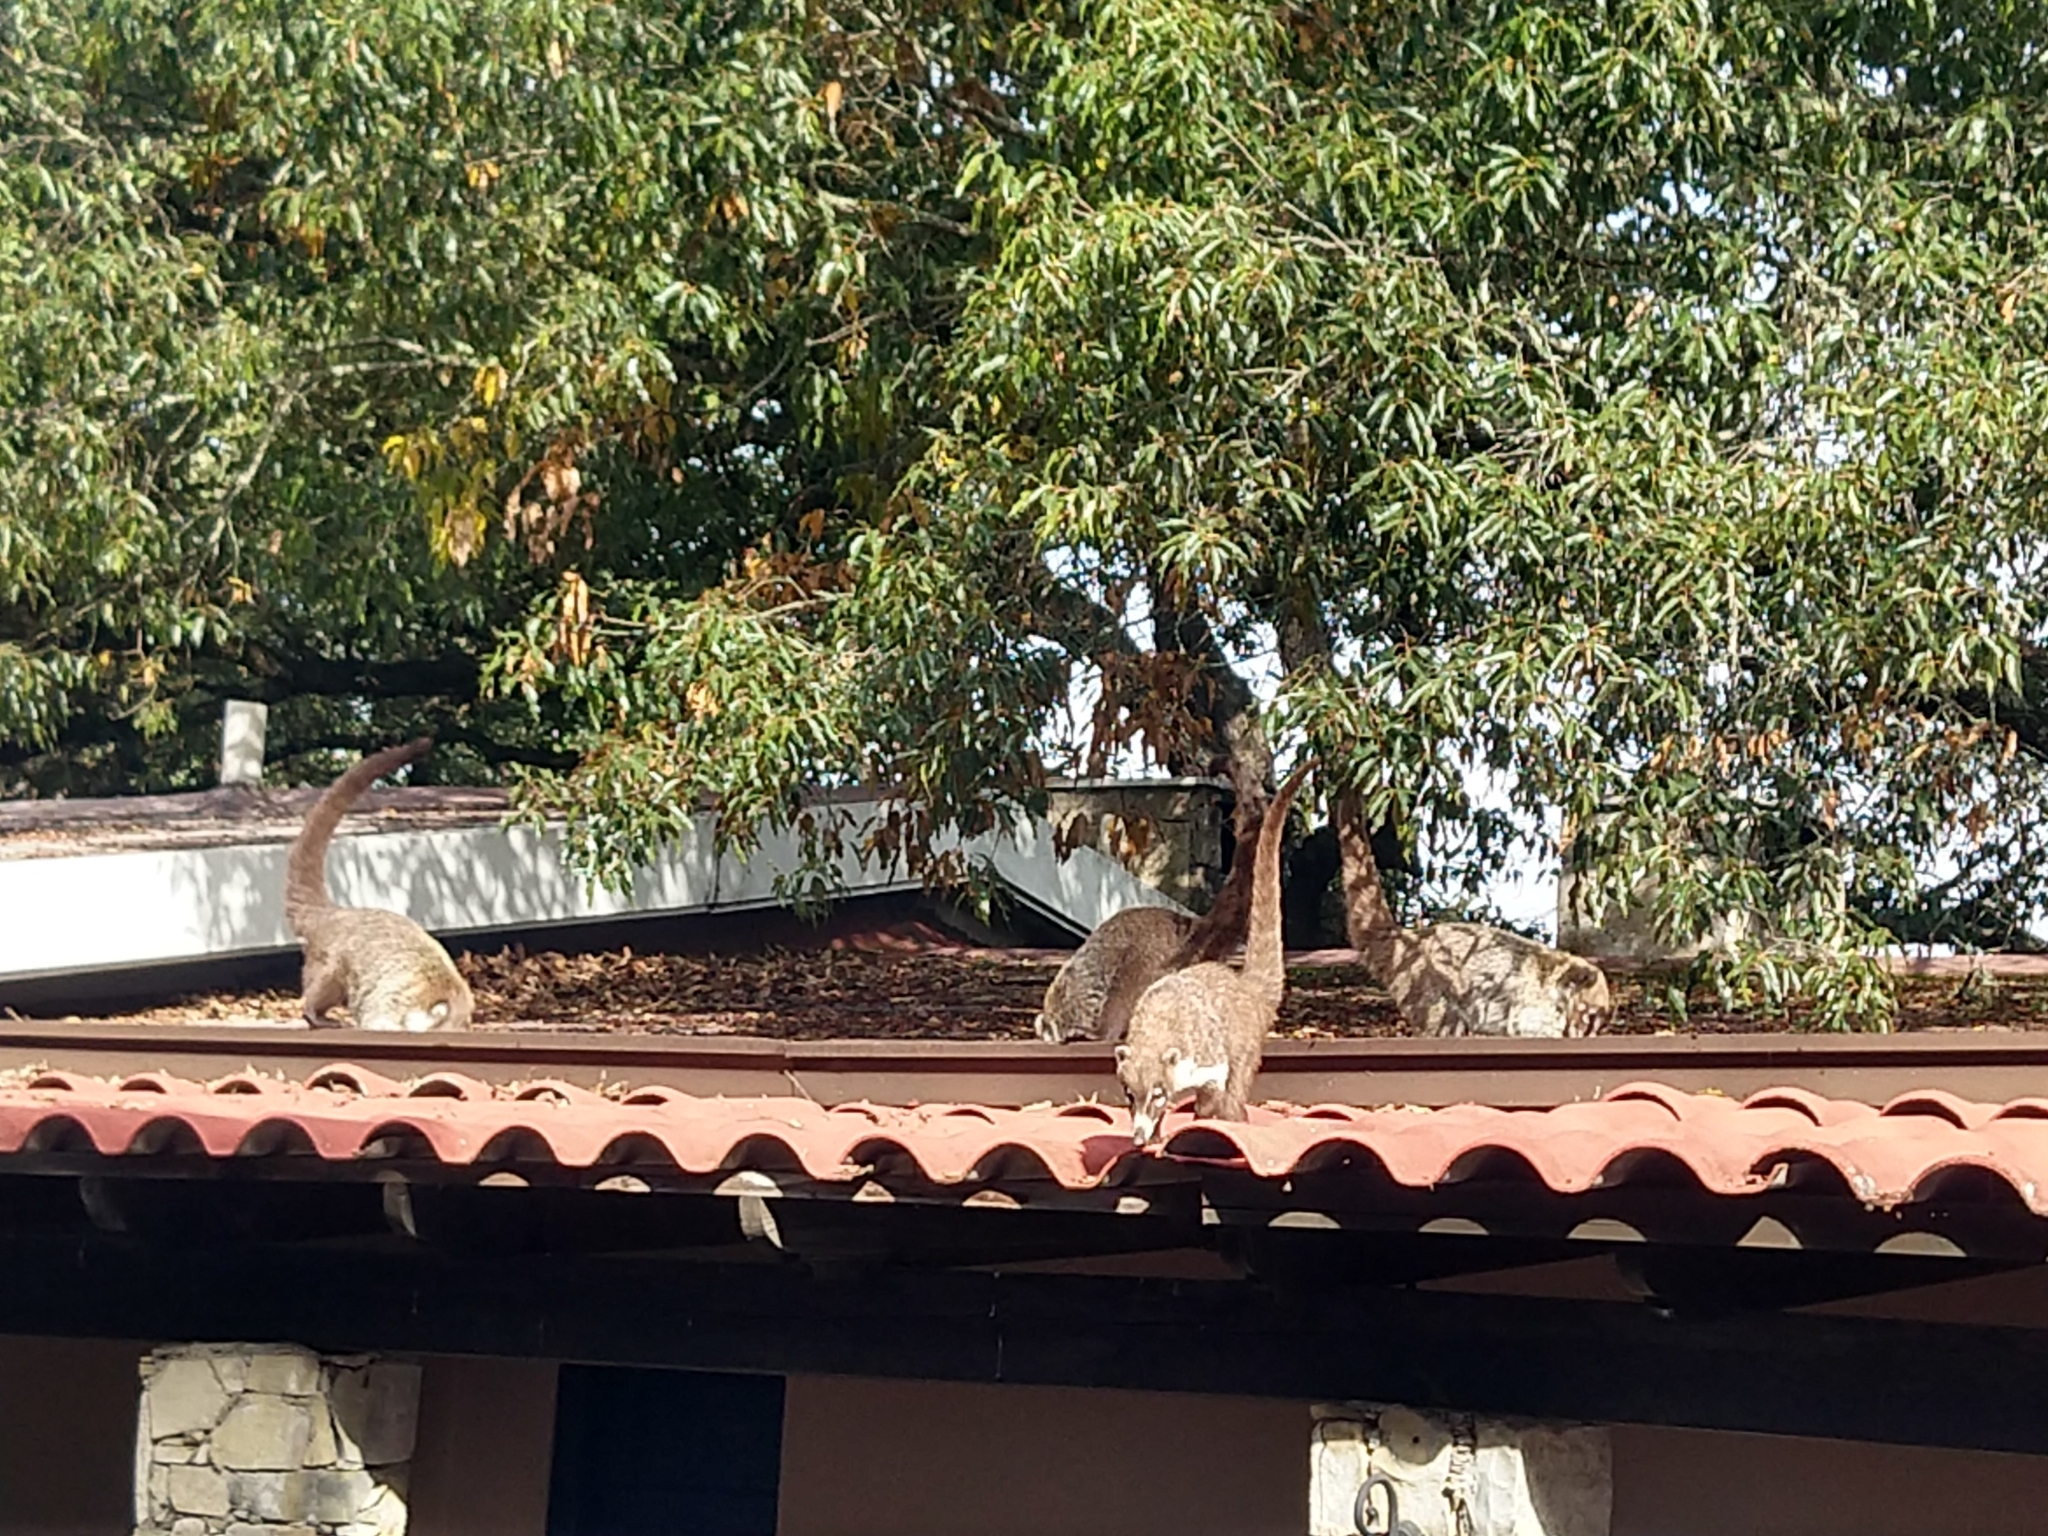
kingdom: Animalia
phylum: Chordata
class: Mammalia
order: Carnivora
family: Procyonidae
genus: Nasua
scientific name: Nasua narica
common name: White-nosed coati
